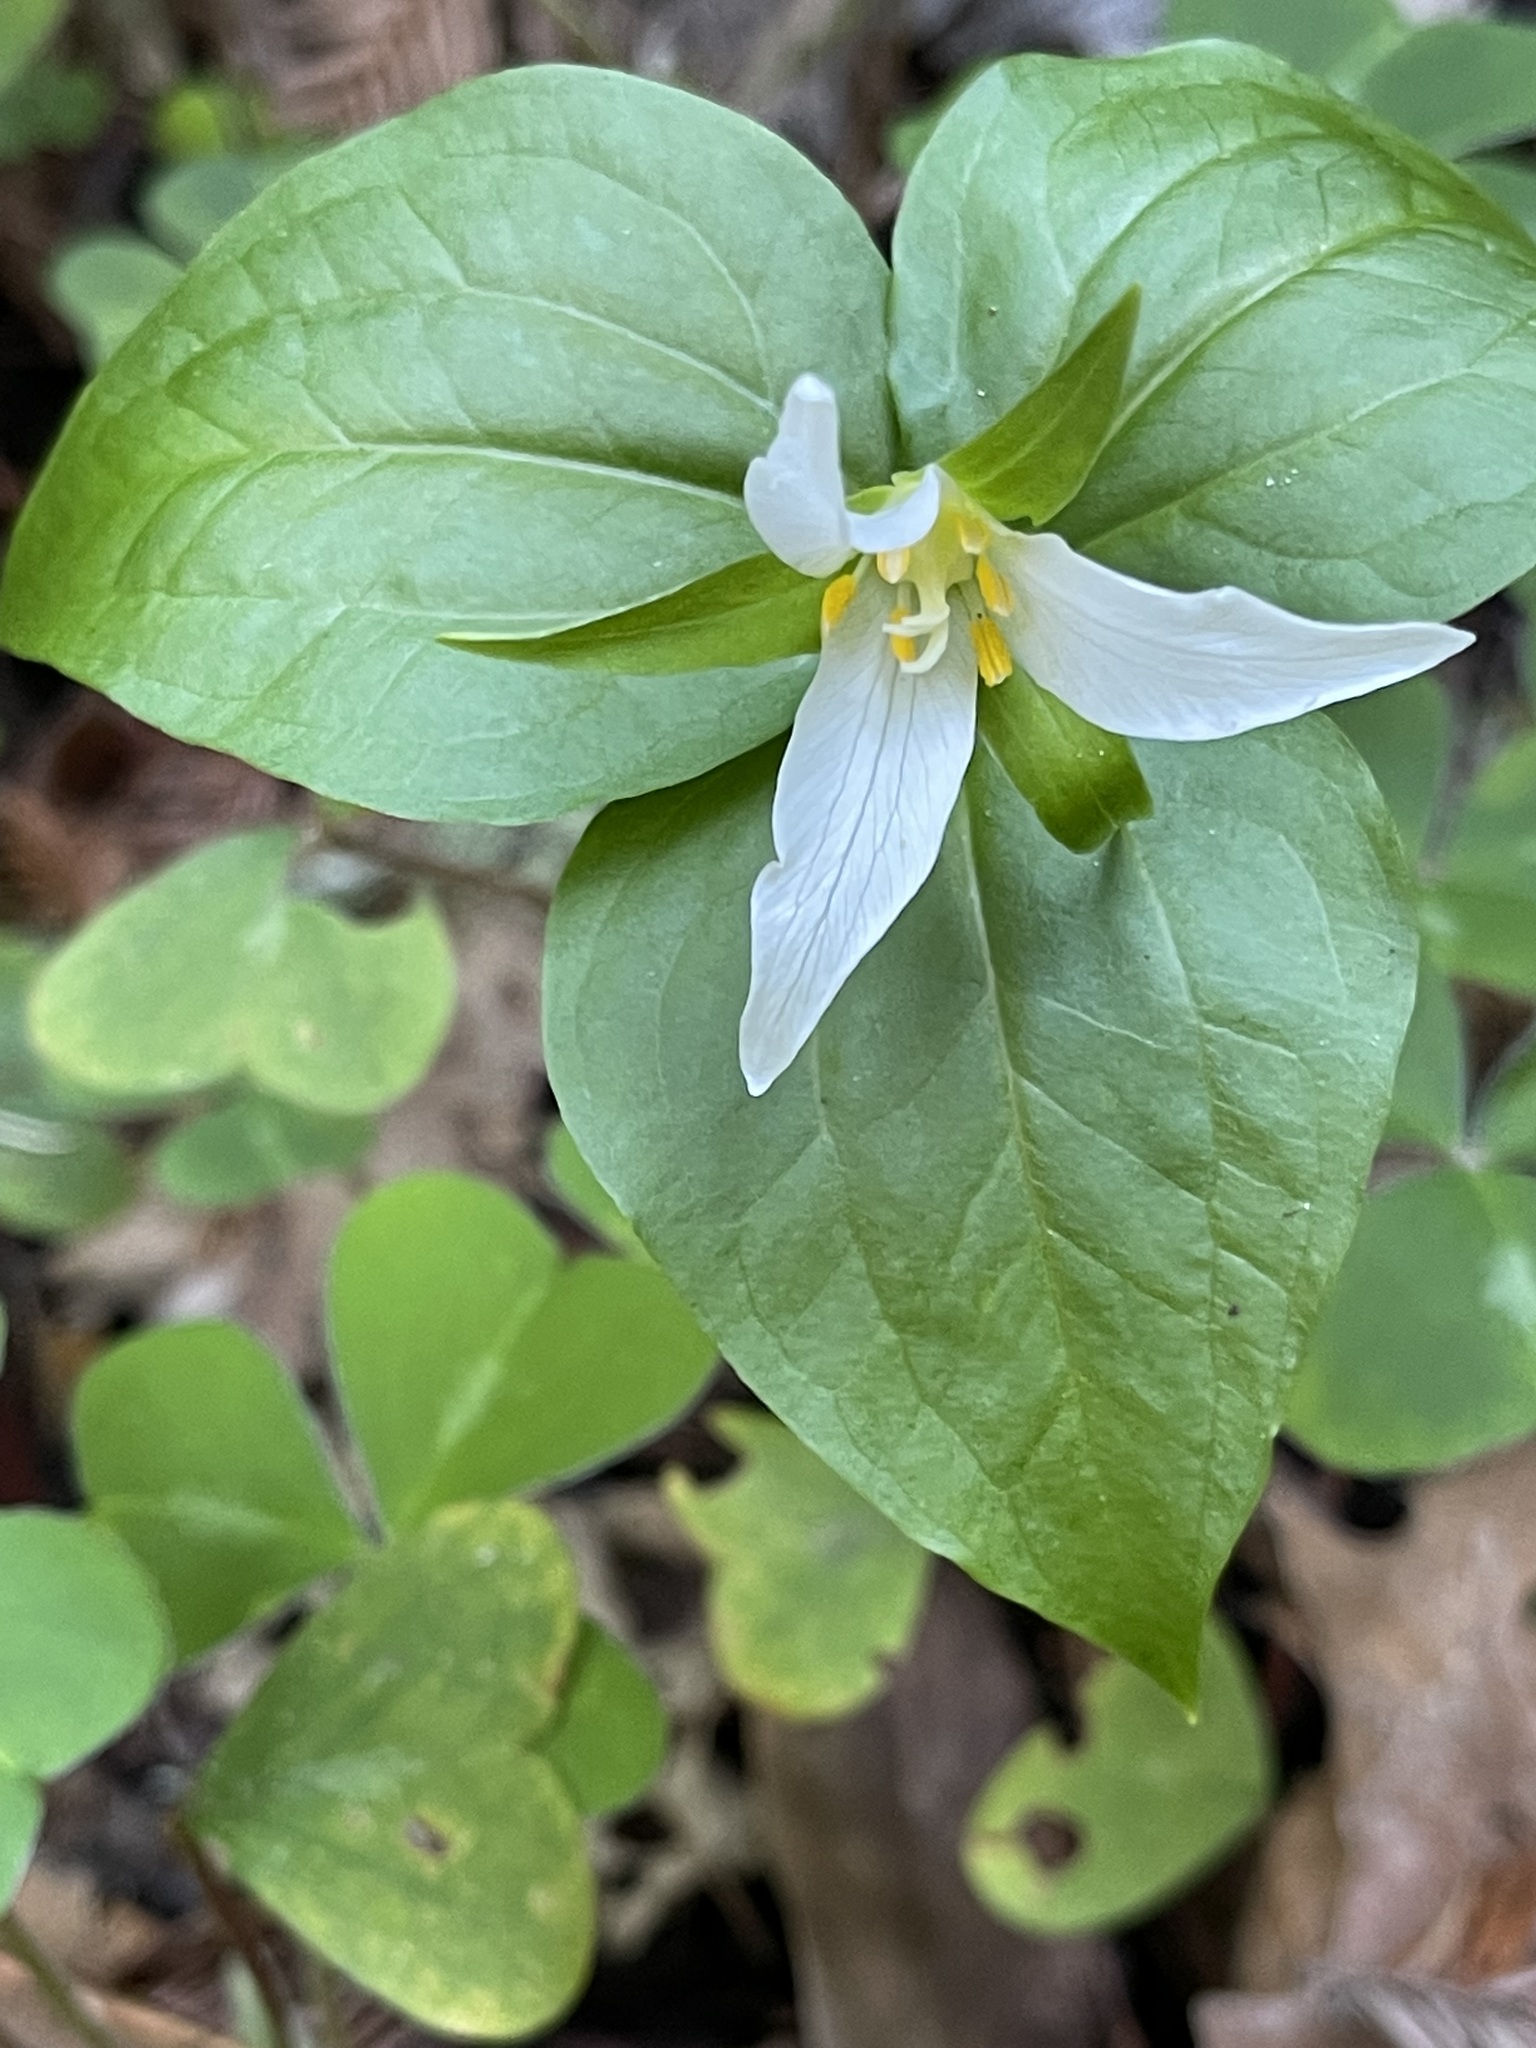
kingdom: Plantae
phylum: Tracheophyta
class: Liliopsida
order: Liliales
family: Melanthiaceae
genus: Trillium
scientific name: Trillium ovatum
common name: Pacific trillium
